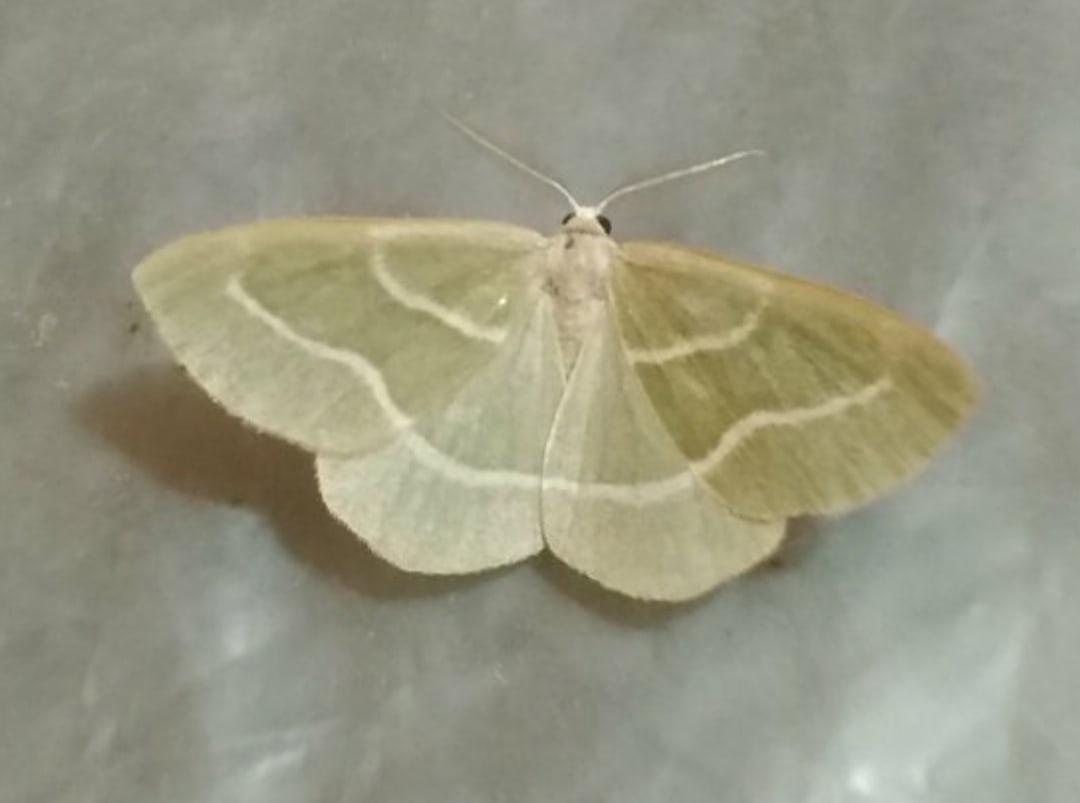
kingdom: Animalia
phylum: Arthropoda
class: Insecta
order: Lepidoptera
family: Geometridae
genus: Hylaea
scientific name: Hylaea fasciaria
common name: Barred red
